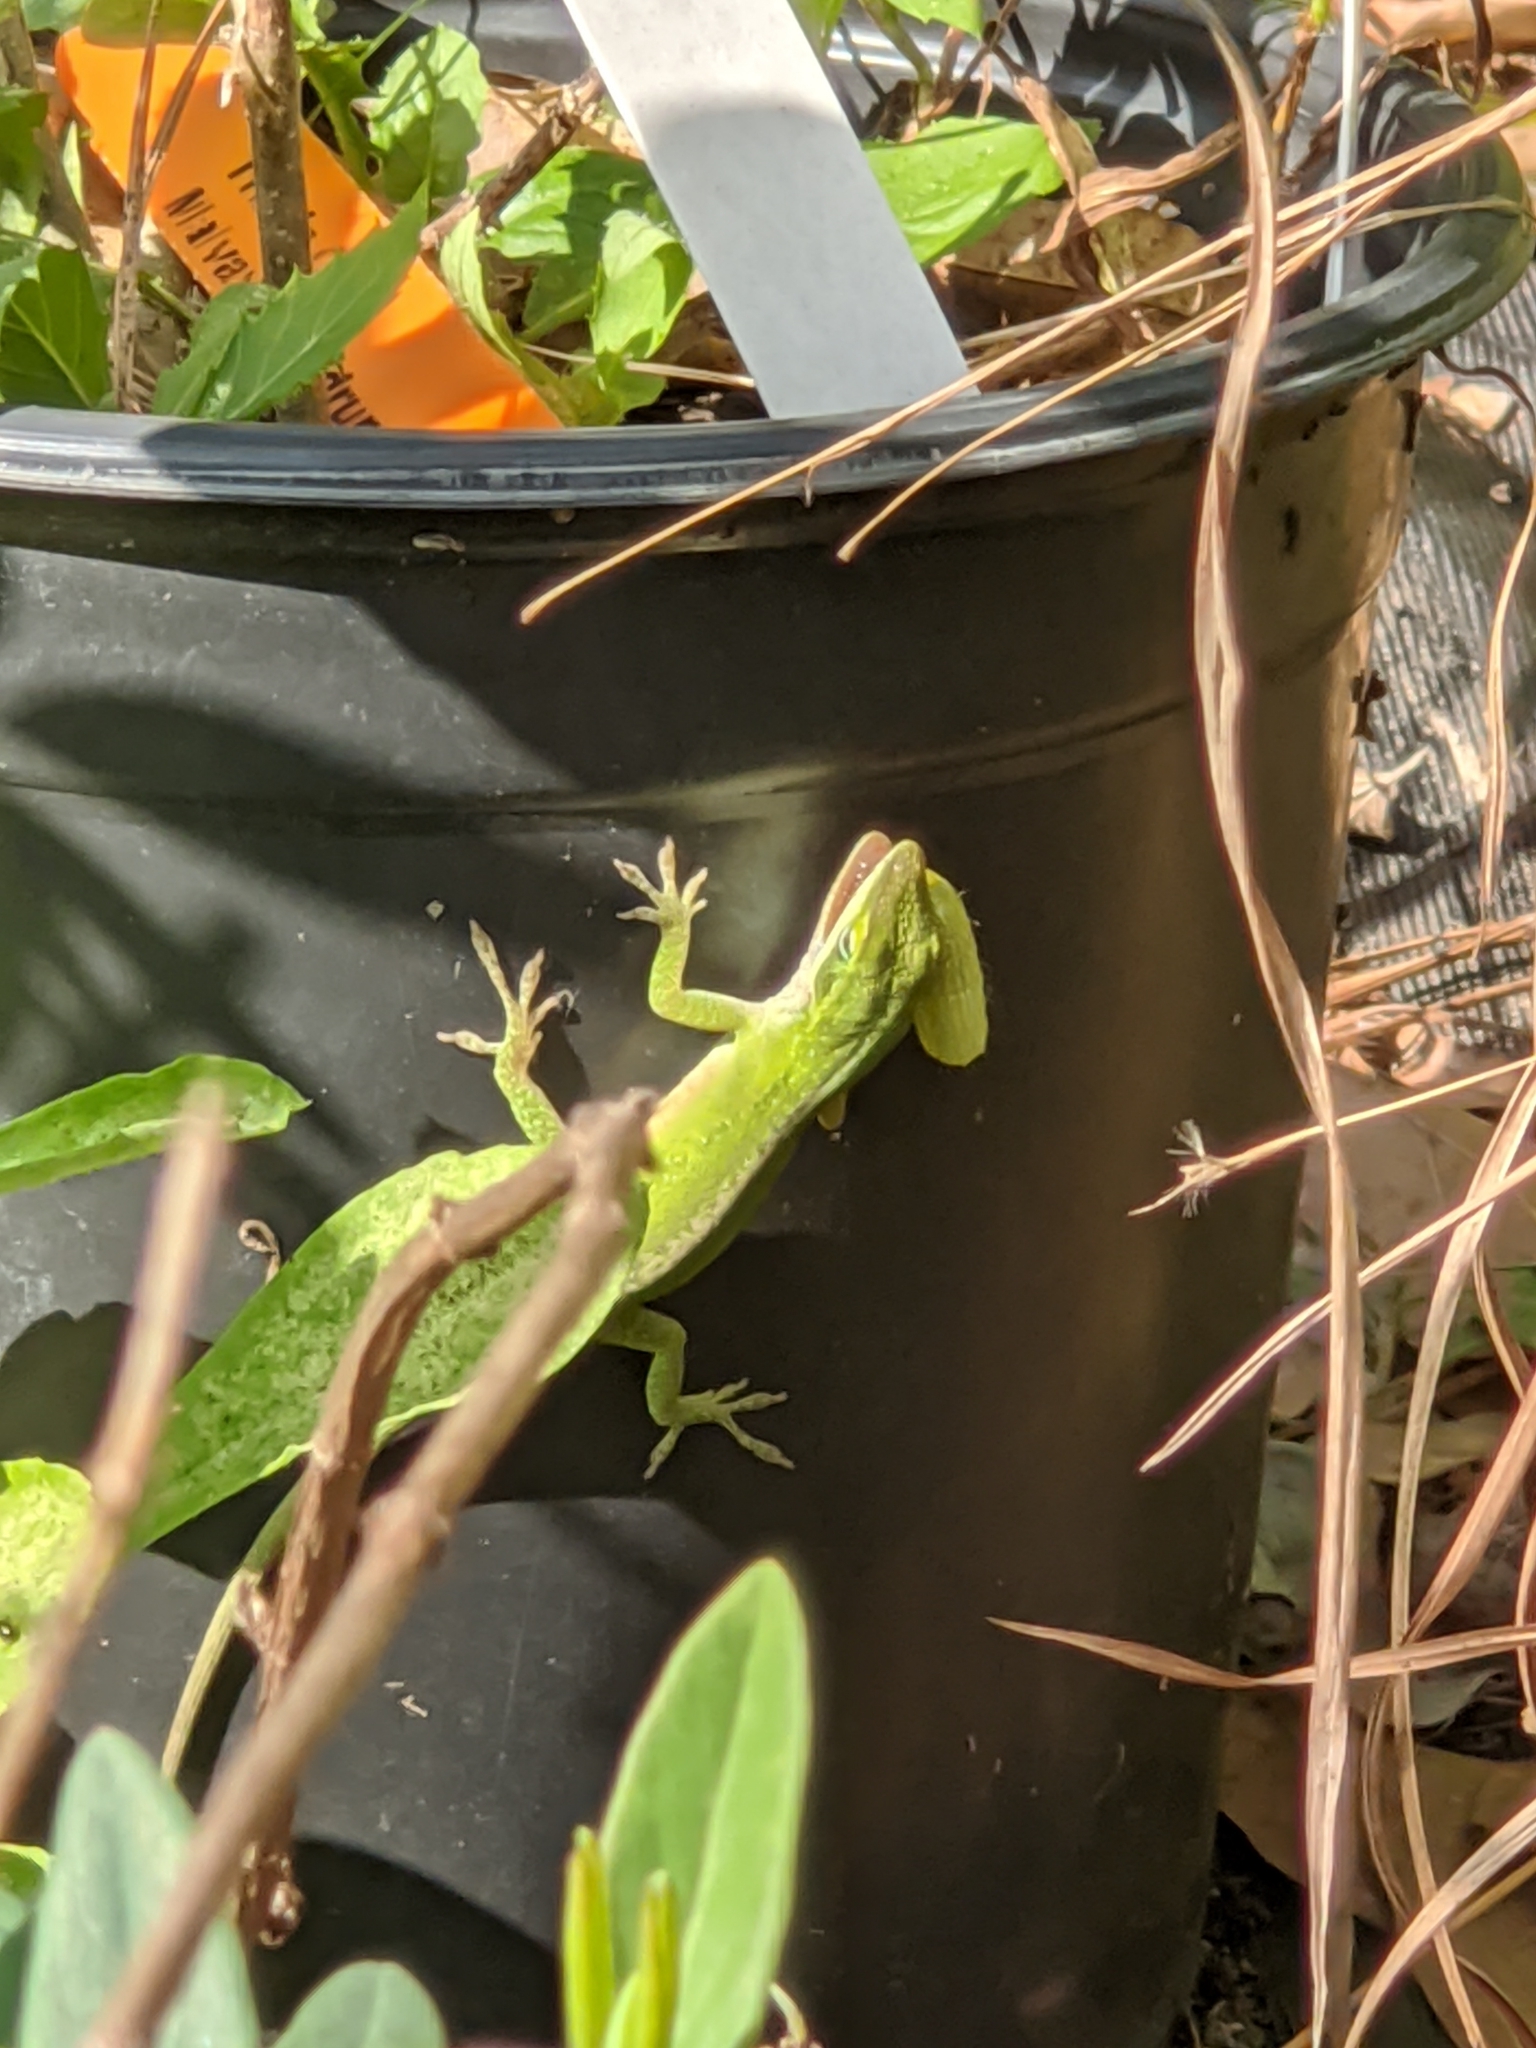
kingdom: Animalia
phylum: Chordata
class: Squamata
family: Dactyloidae
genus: Anolis
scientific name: Anolis carolinensis
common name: Green anole
